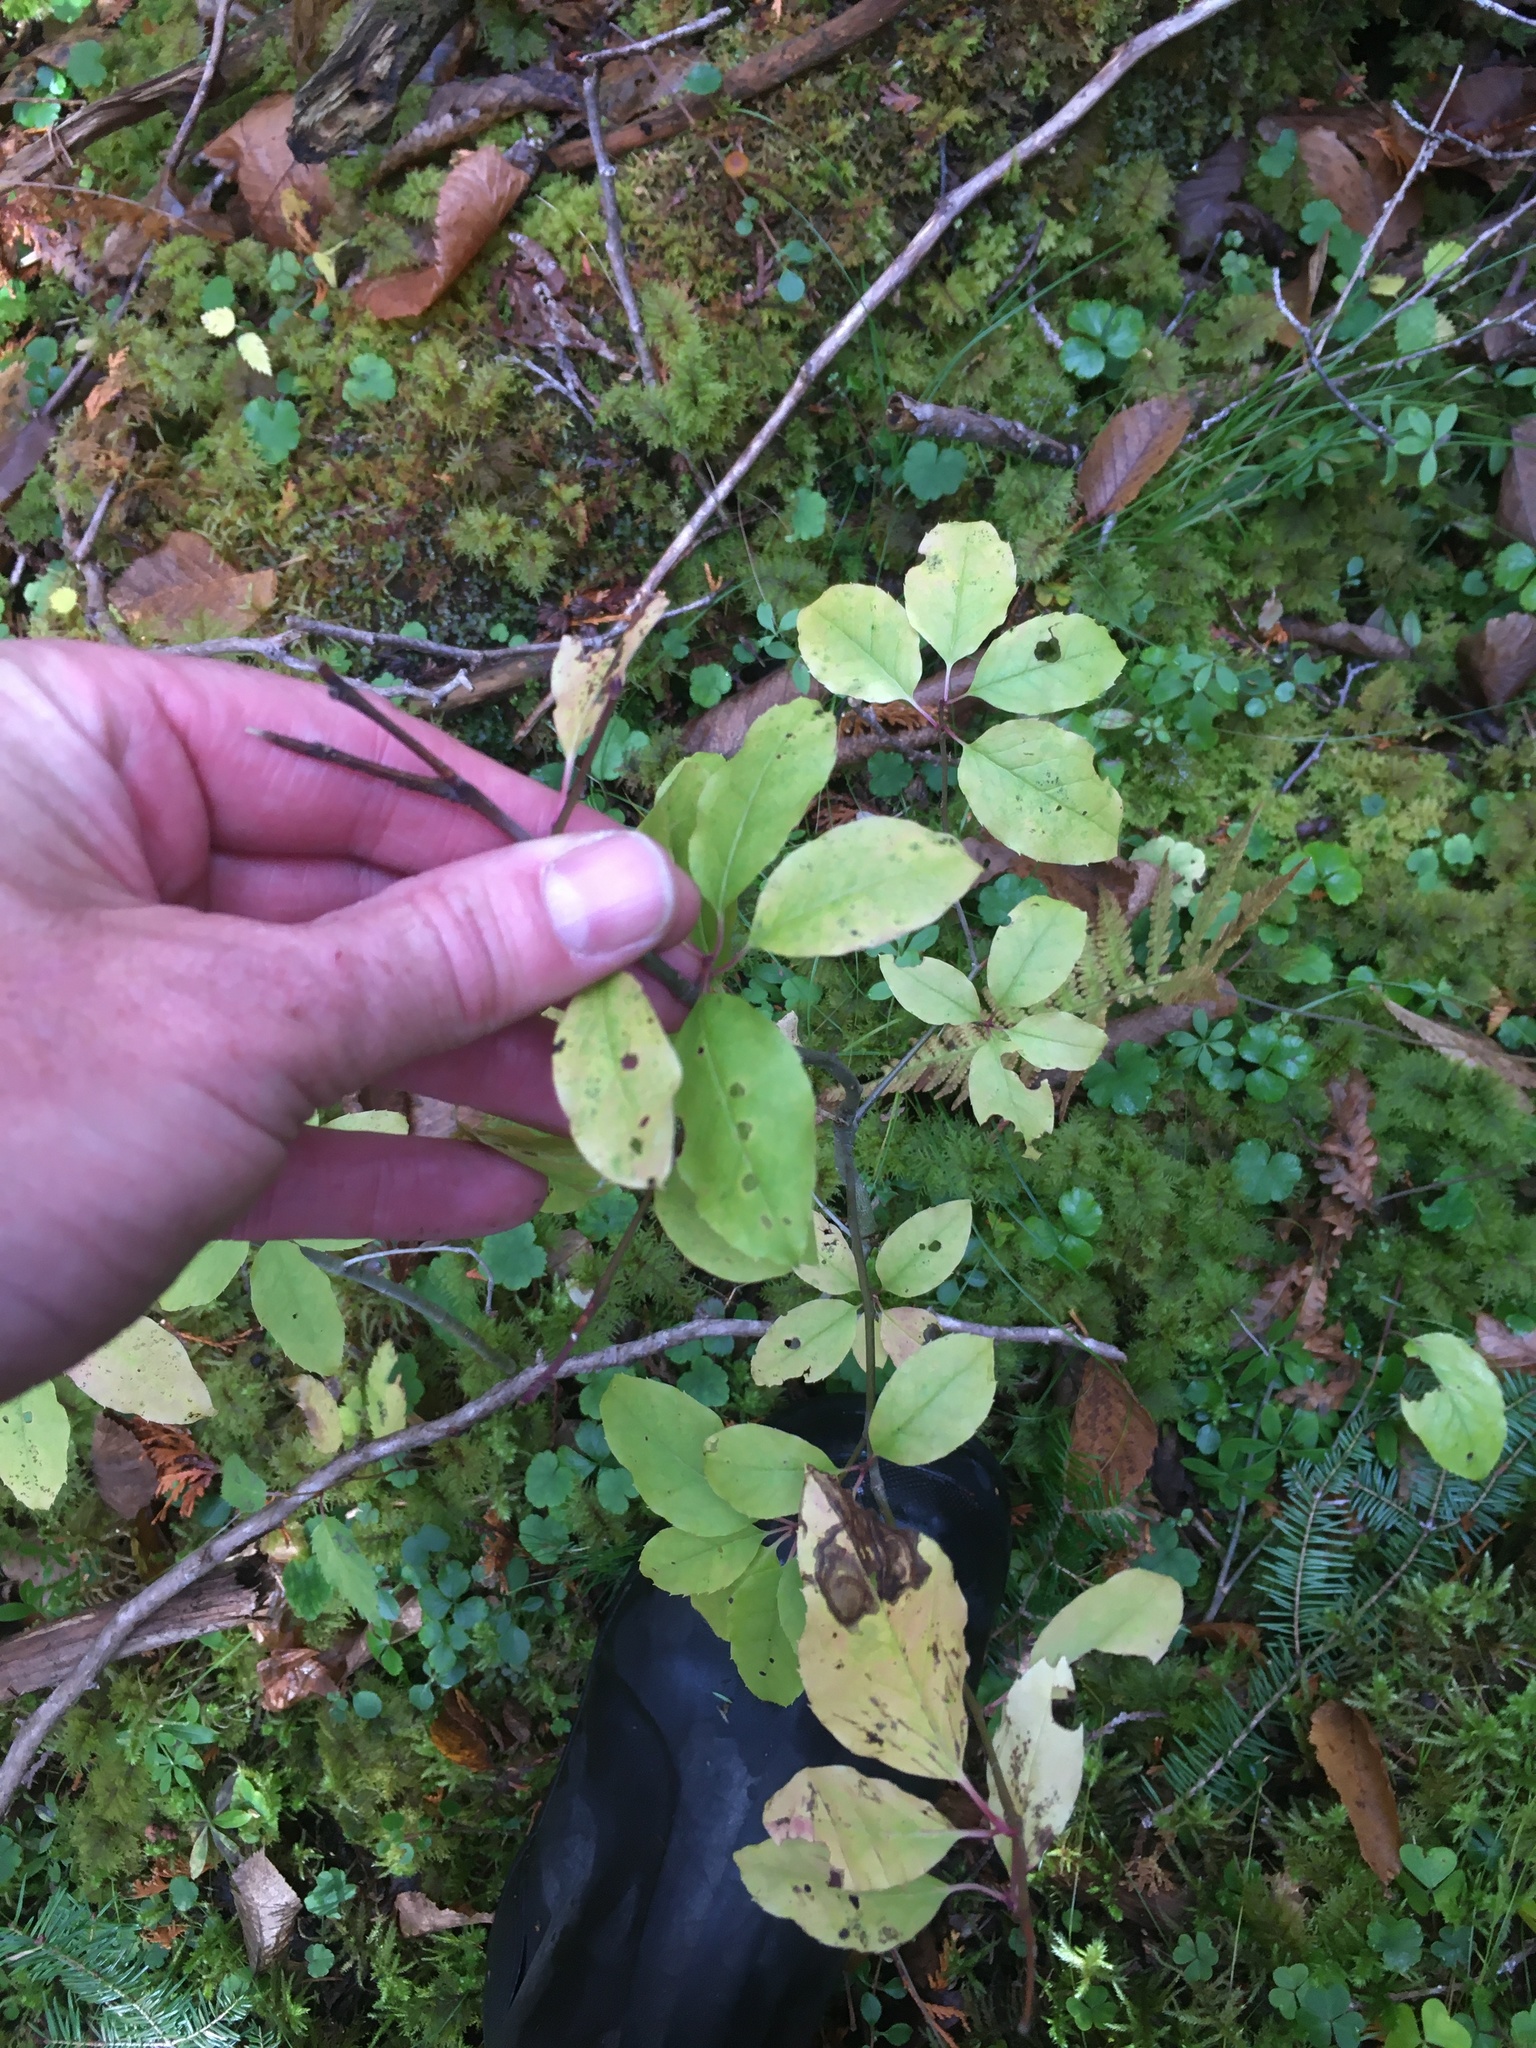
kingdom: Plantae
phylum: Tracheophyta
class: Magnoliopsida
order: Aquifoliales
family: Aquifoliaceae
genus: Ilex
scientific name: Ilex mucronata
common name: Catberry
